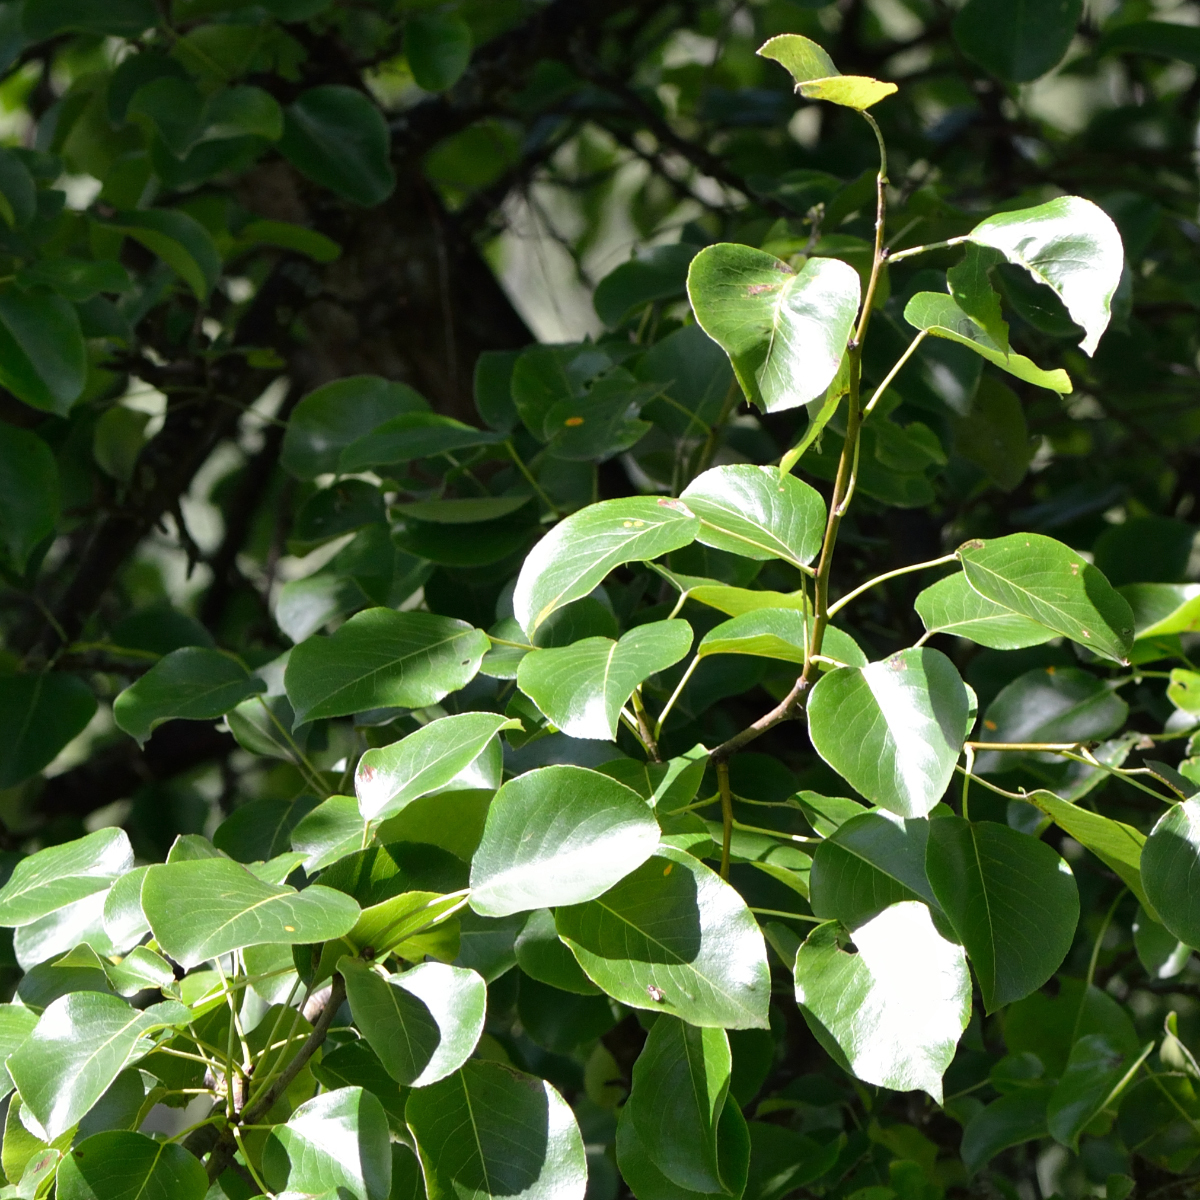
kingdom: Plantae
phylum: Tracheophyta
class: Magnoliopsida
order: Rosales
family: Rosaceae
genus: Pyrus
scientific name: Pyrus communis
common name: Pear
